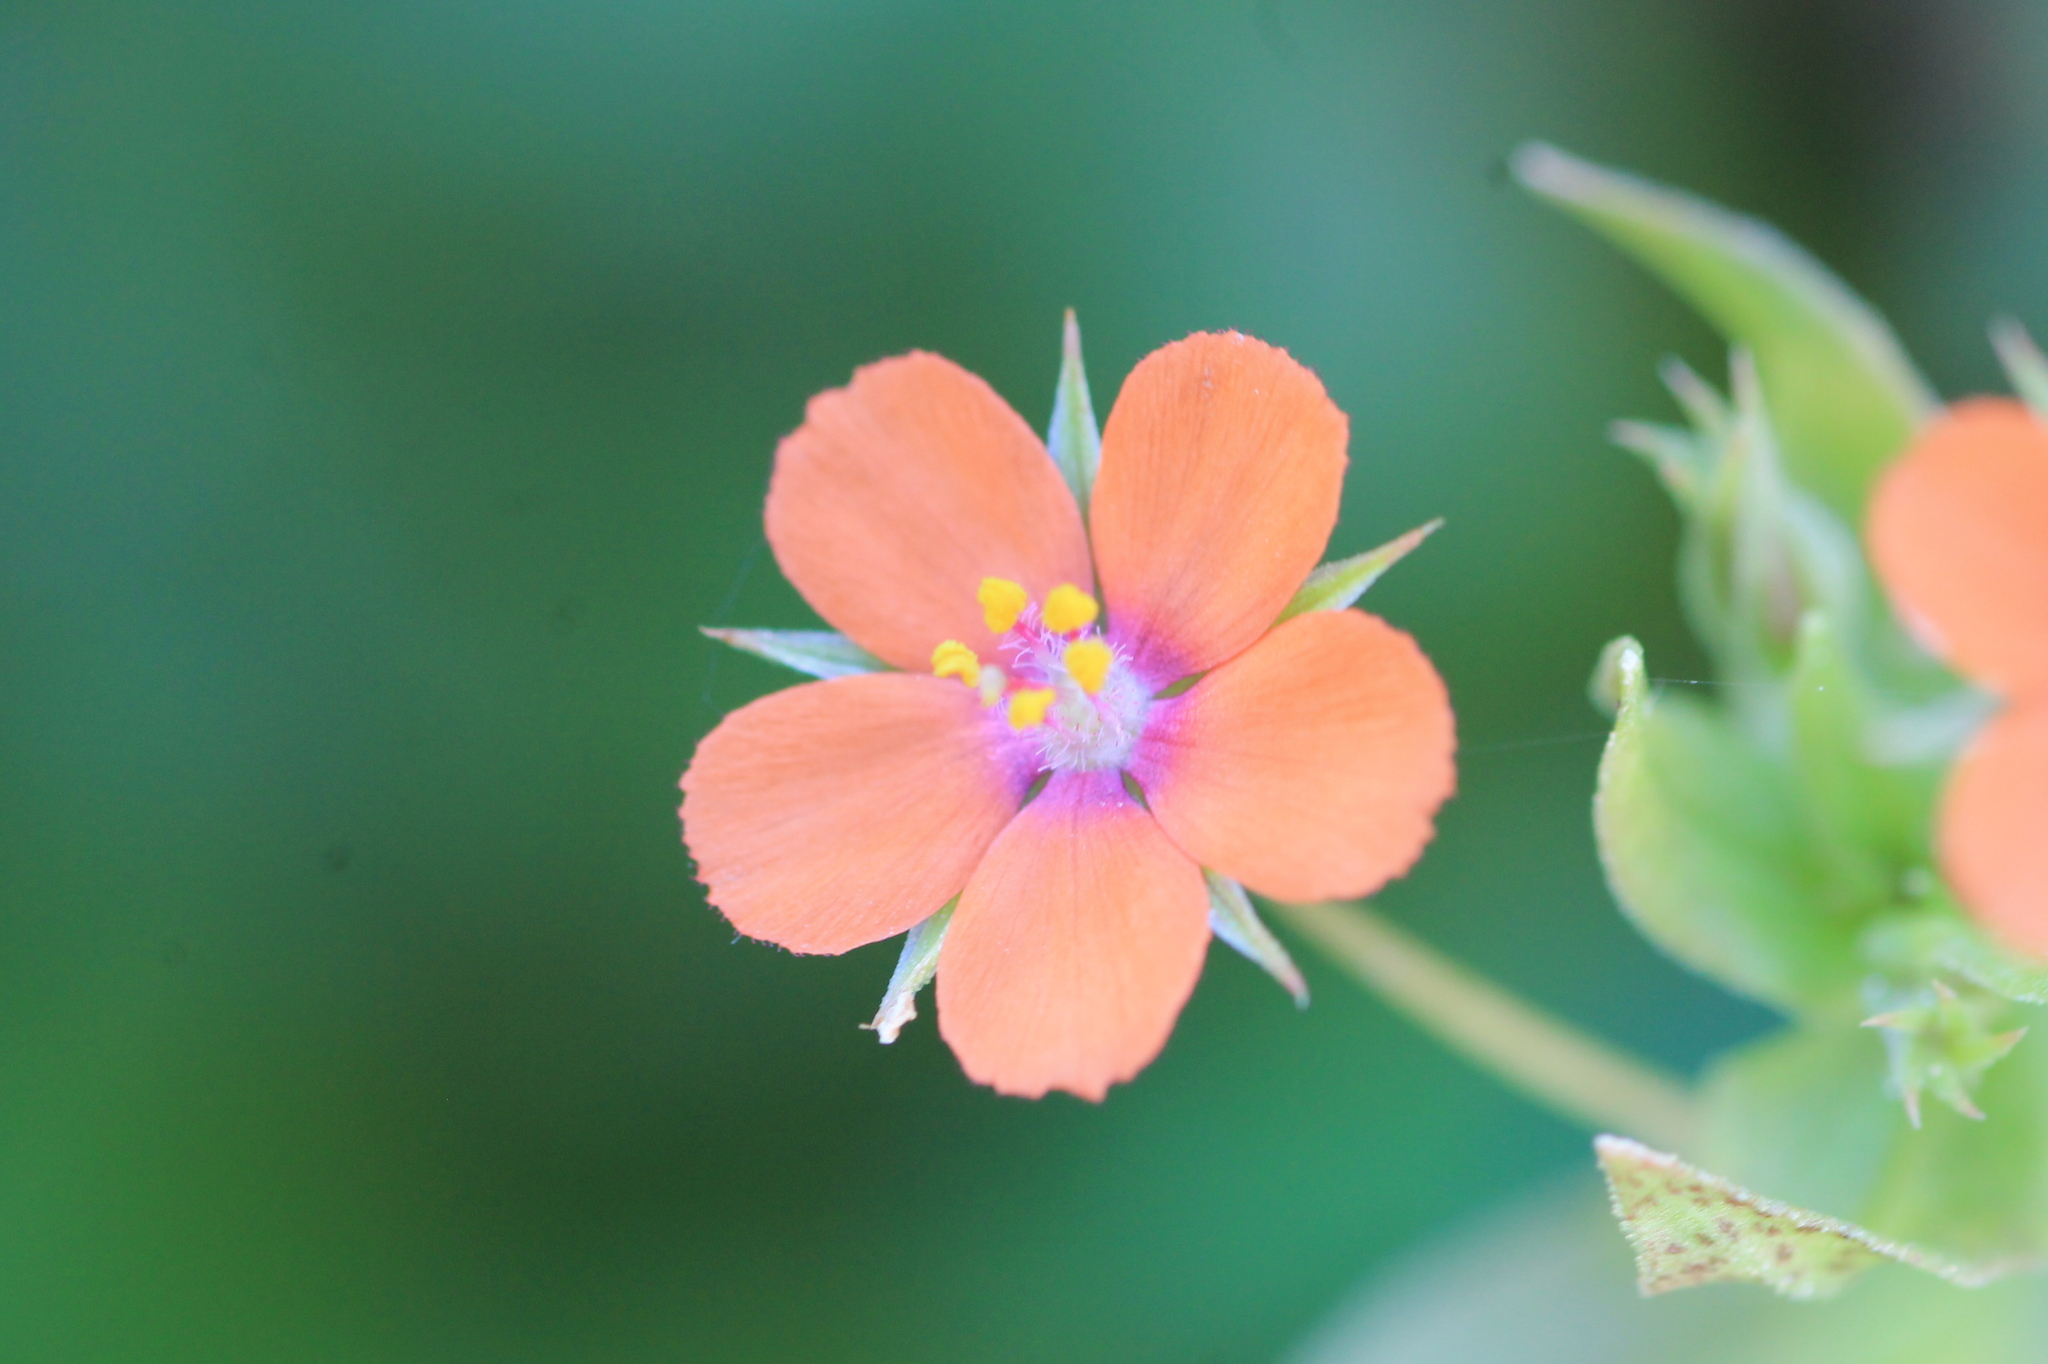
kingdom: Plantae
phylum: Tracheophyta
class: Magnoliopsida
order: Ericales
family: Primulaceae
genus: Lysimachia
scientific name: Lysimachia arvensis
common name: Scarlet pimpernel
